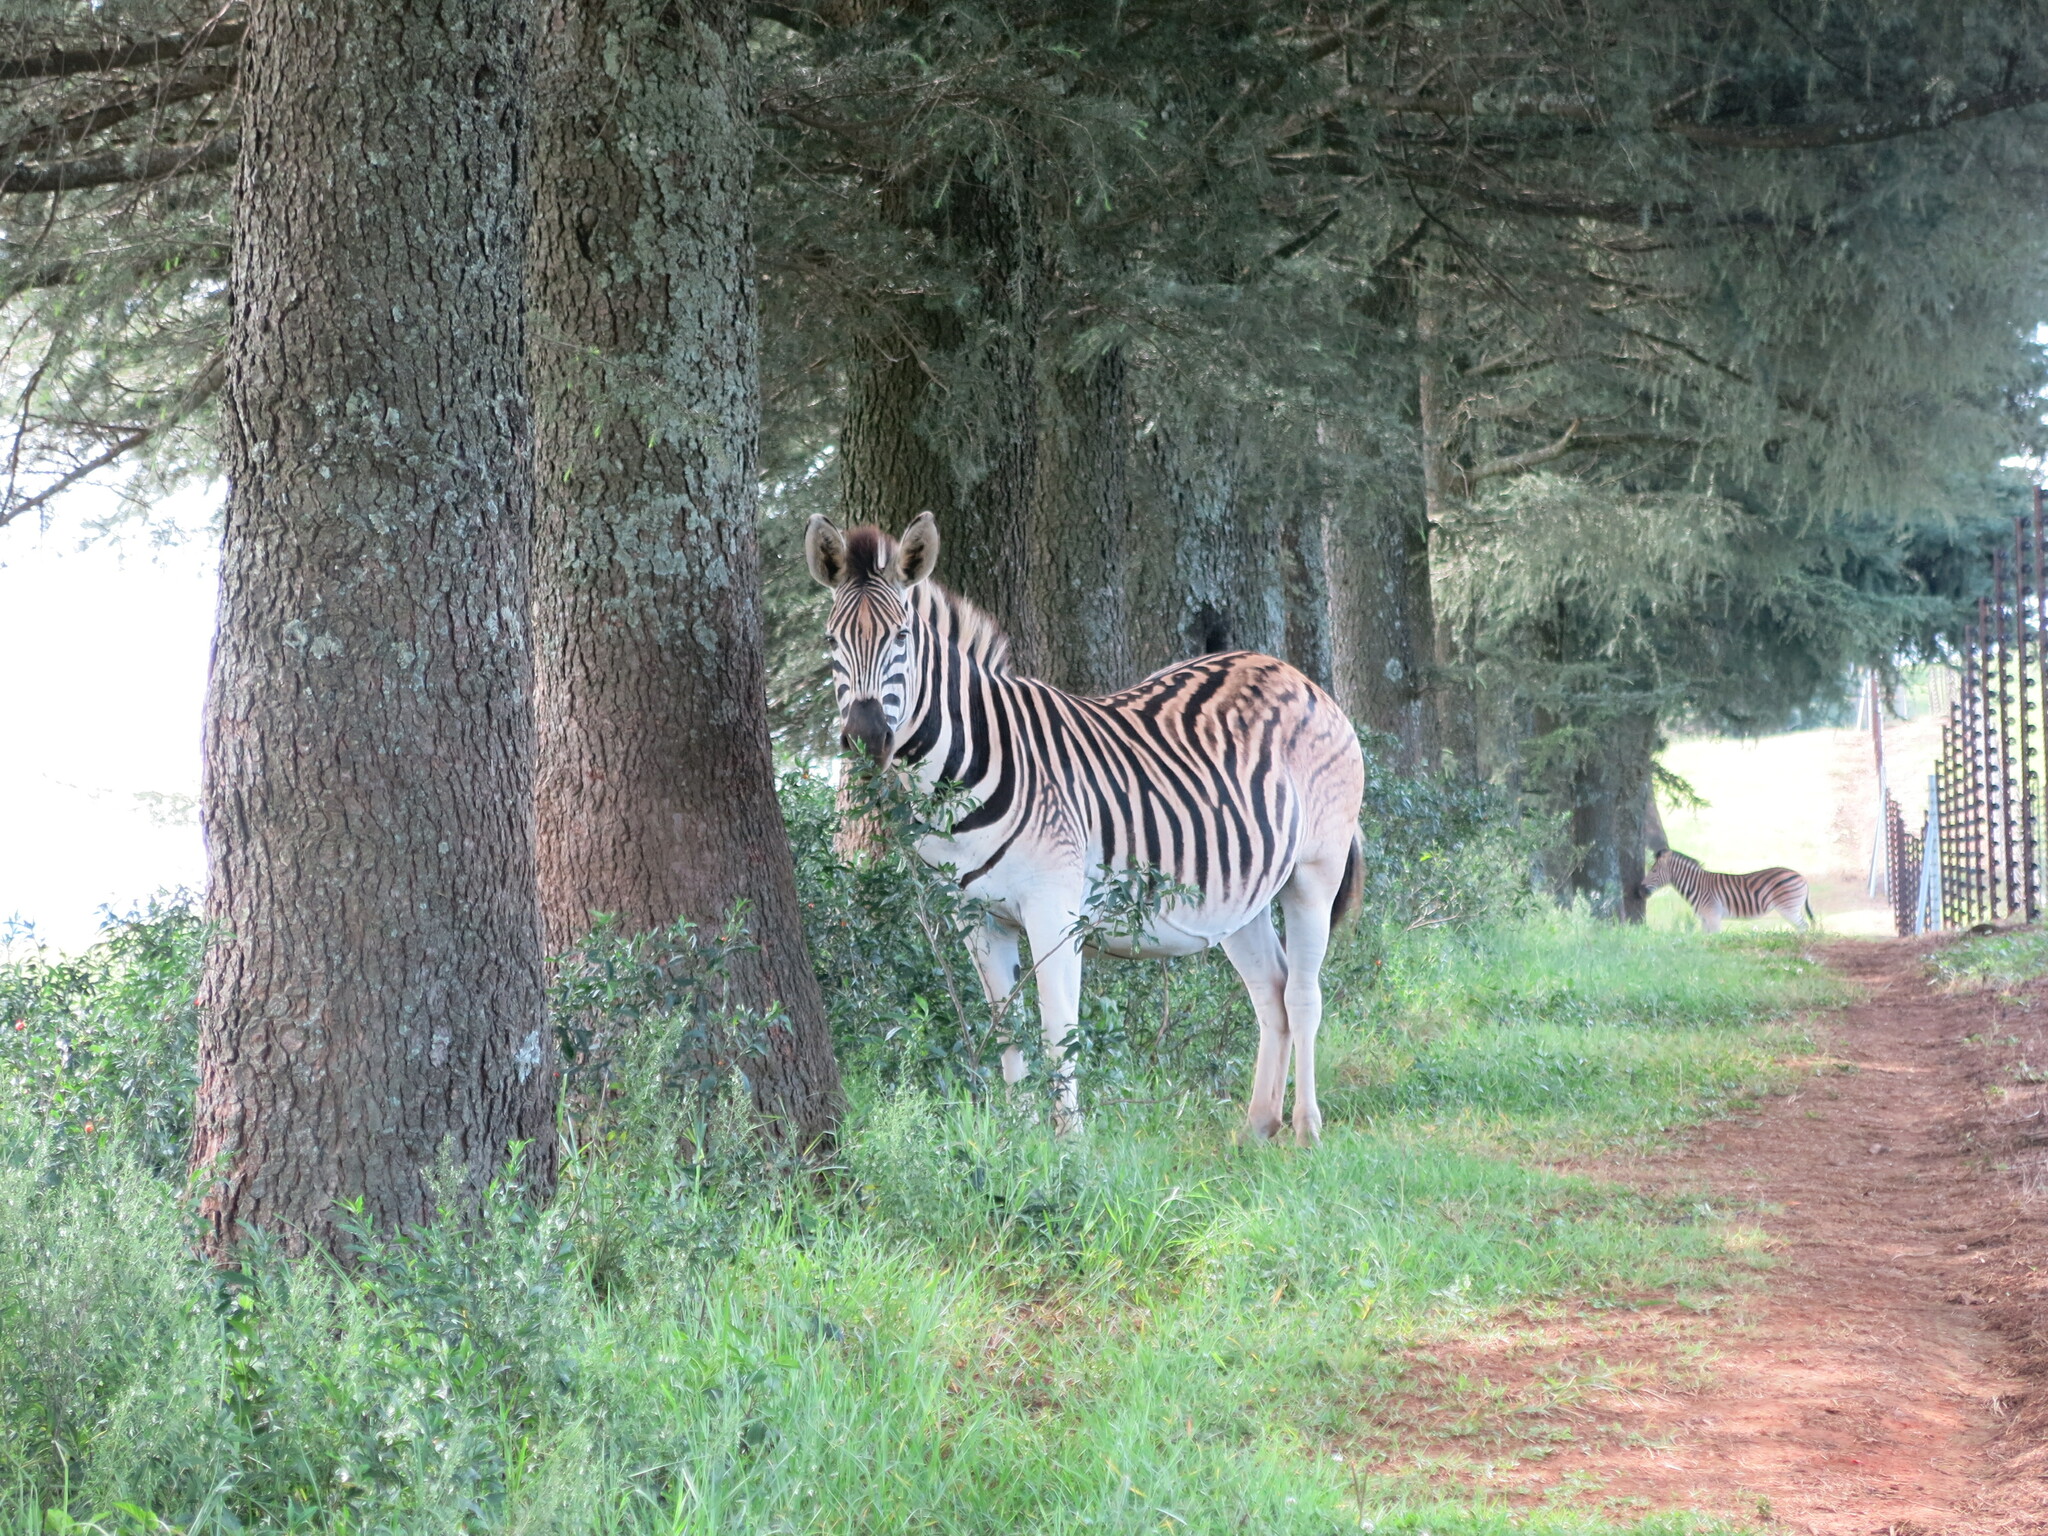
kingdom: Animalia
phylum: Chordata
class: Mammalia
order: Perissodactyla
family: Equidae
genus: Equus
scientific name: Equus quagga
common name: Plains zebra
